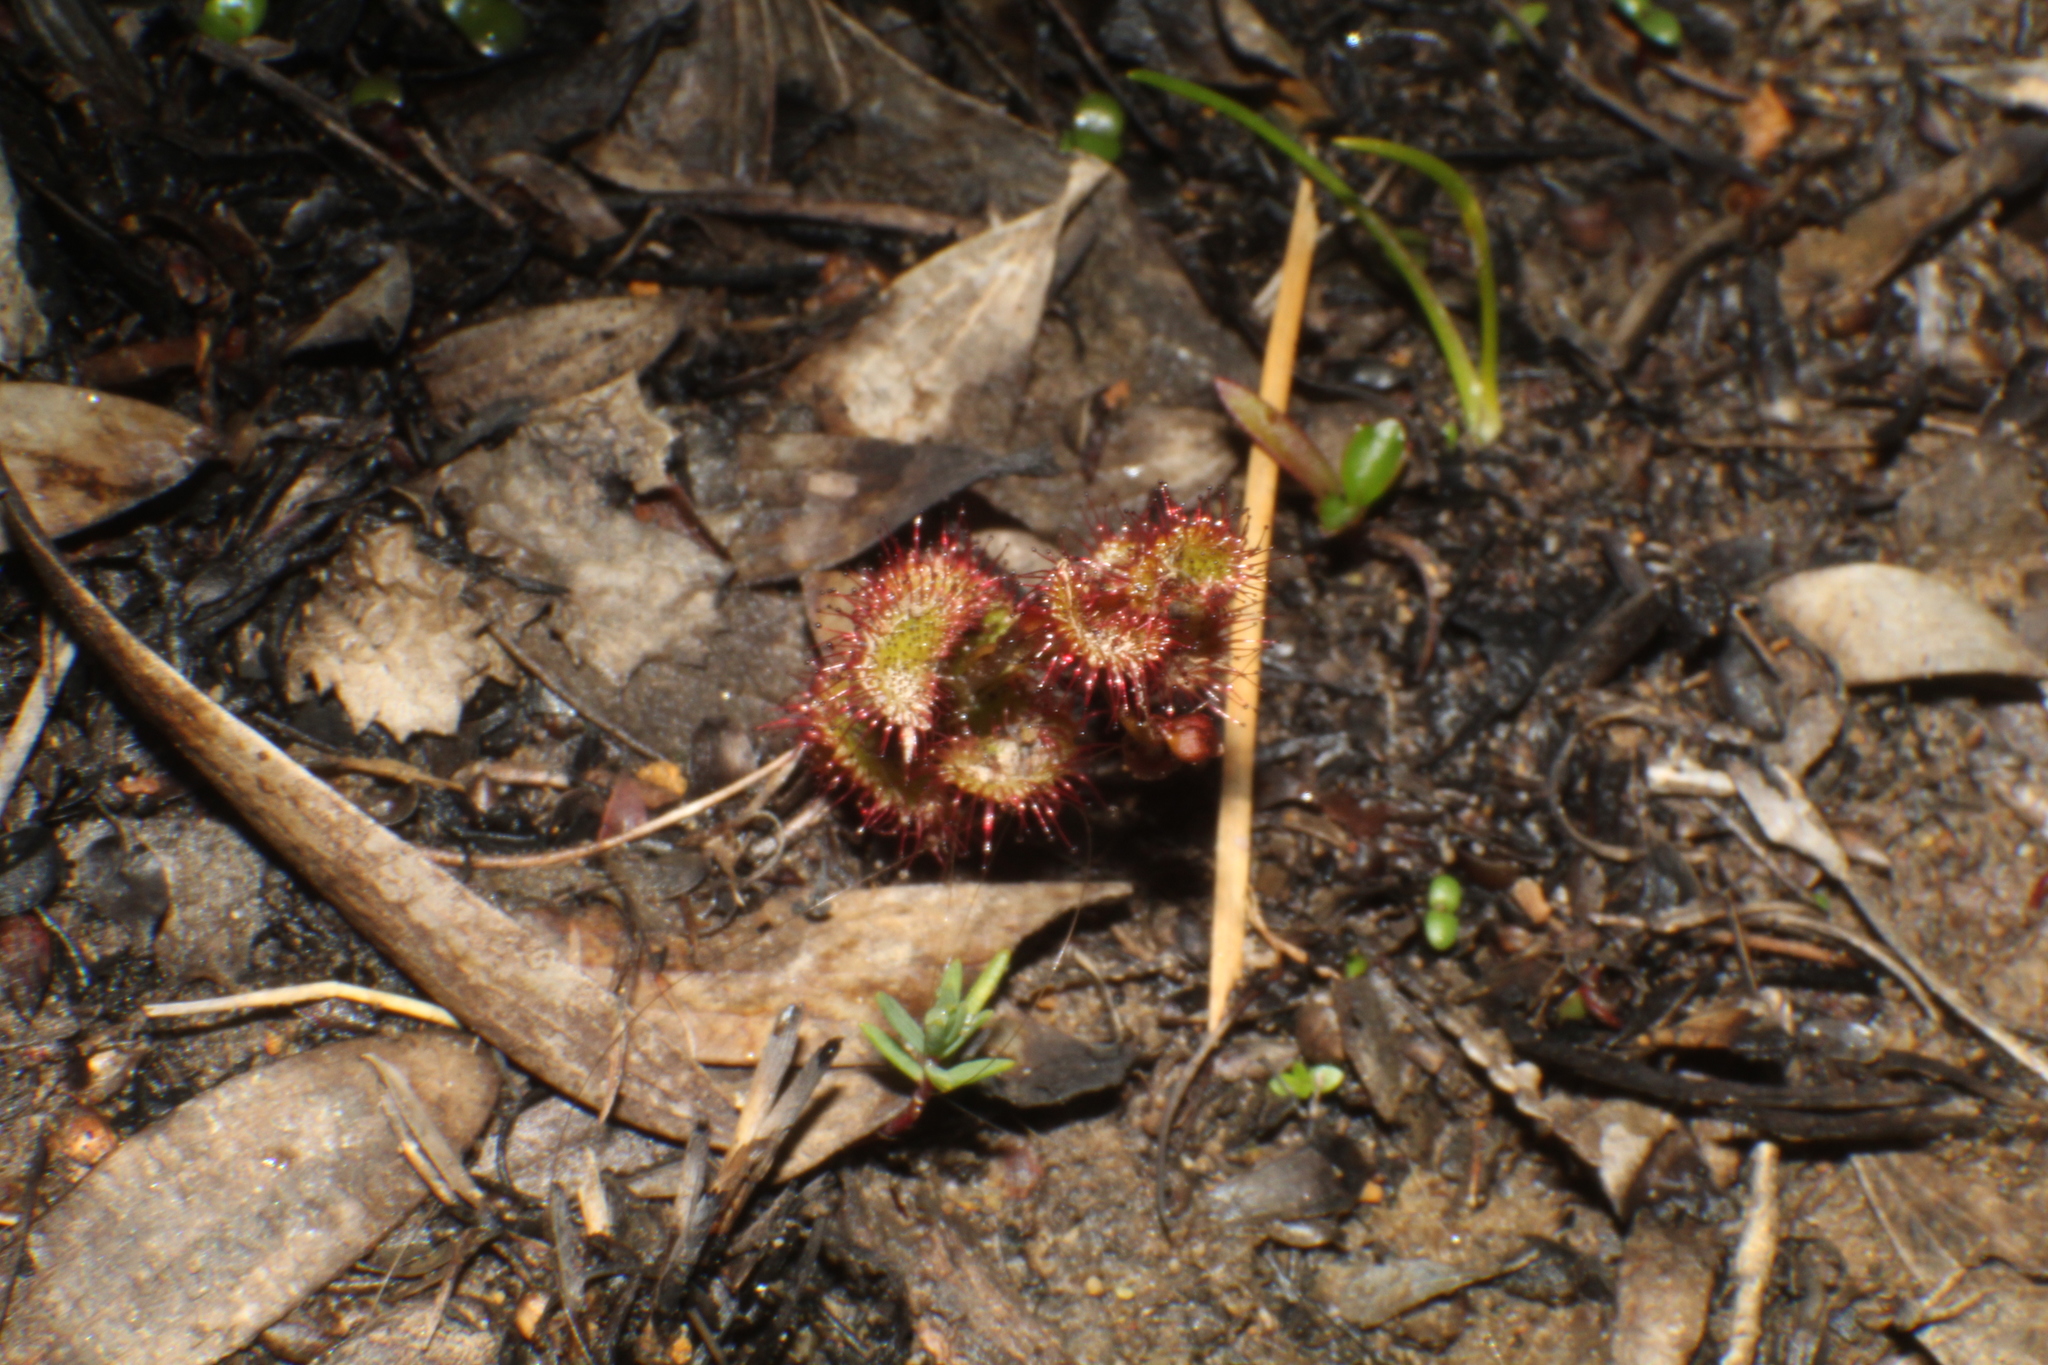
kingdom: Plantae
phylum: Tracheophyta
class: Magnoliopsida
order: Caryophyllales
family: Droseraceae
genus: Drosera
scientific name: Drosera monticola
